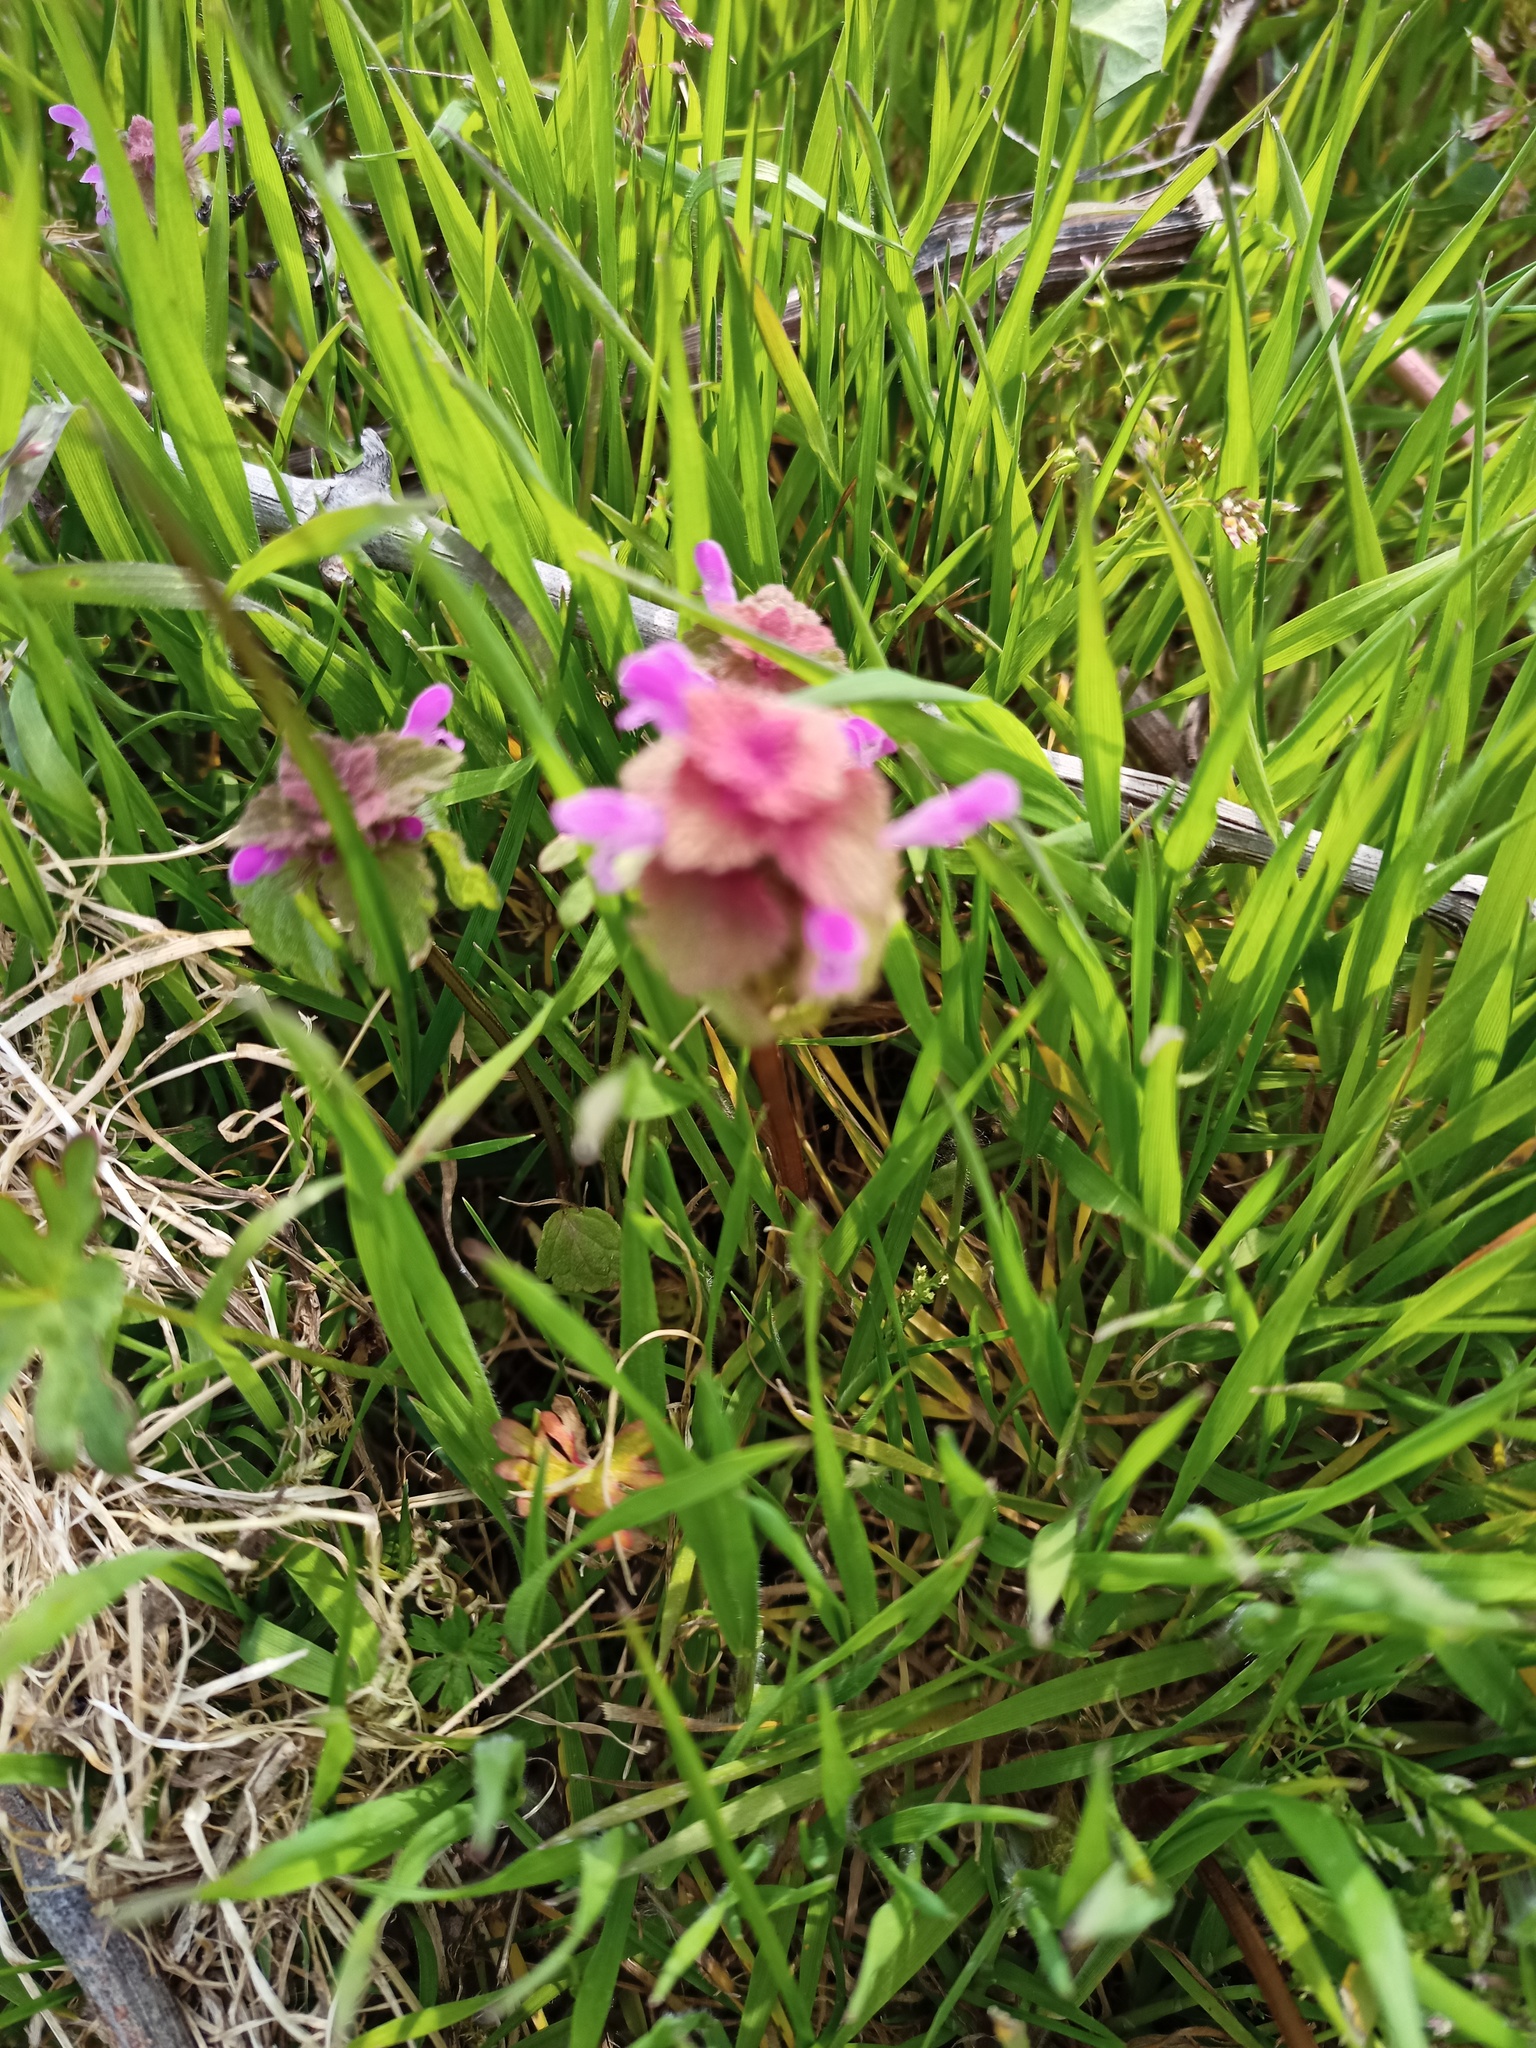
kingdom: Plantae
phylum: Tracheophyta
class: Magnoliopsida
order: Lamiales
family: Lamiaceae
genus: Lamium
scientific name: Lamium purpureum
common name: Red dead-nettle
